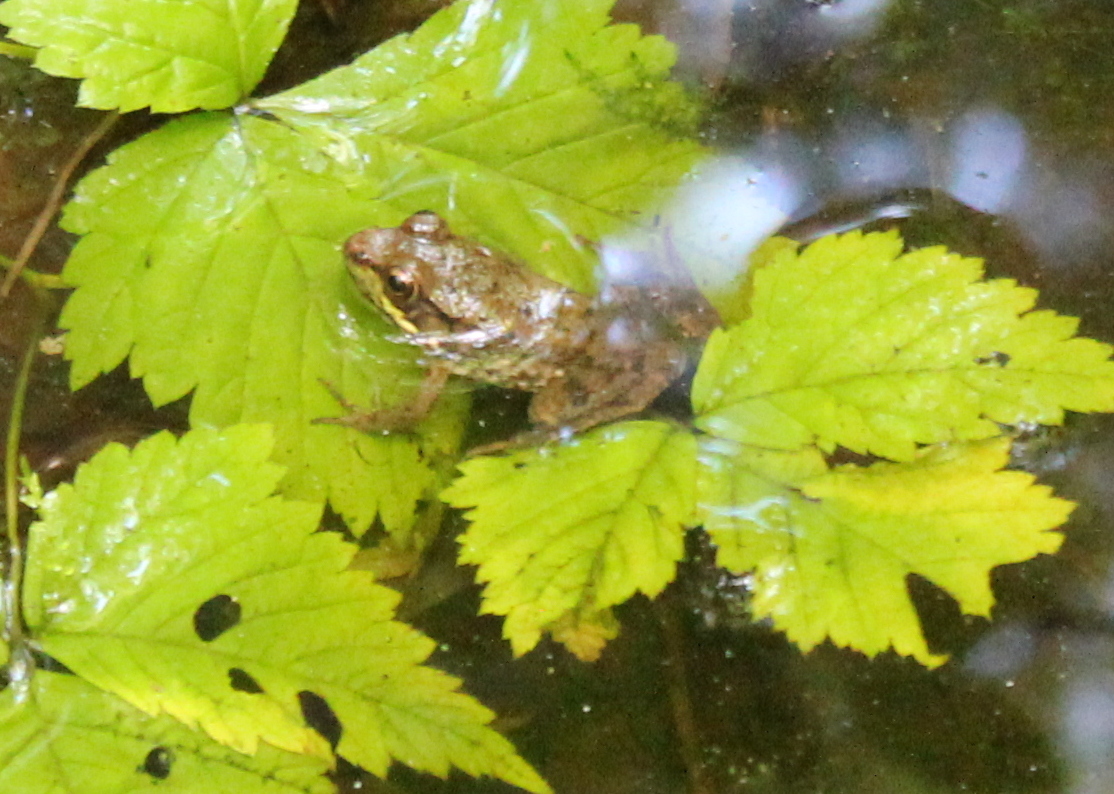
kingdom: Animalia
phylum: Chordata
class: Amphibia
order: Anura
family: Ranidae
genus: Lithobates
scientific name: Lithobates clamitans
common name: Green frog
